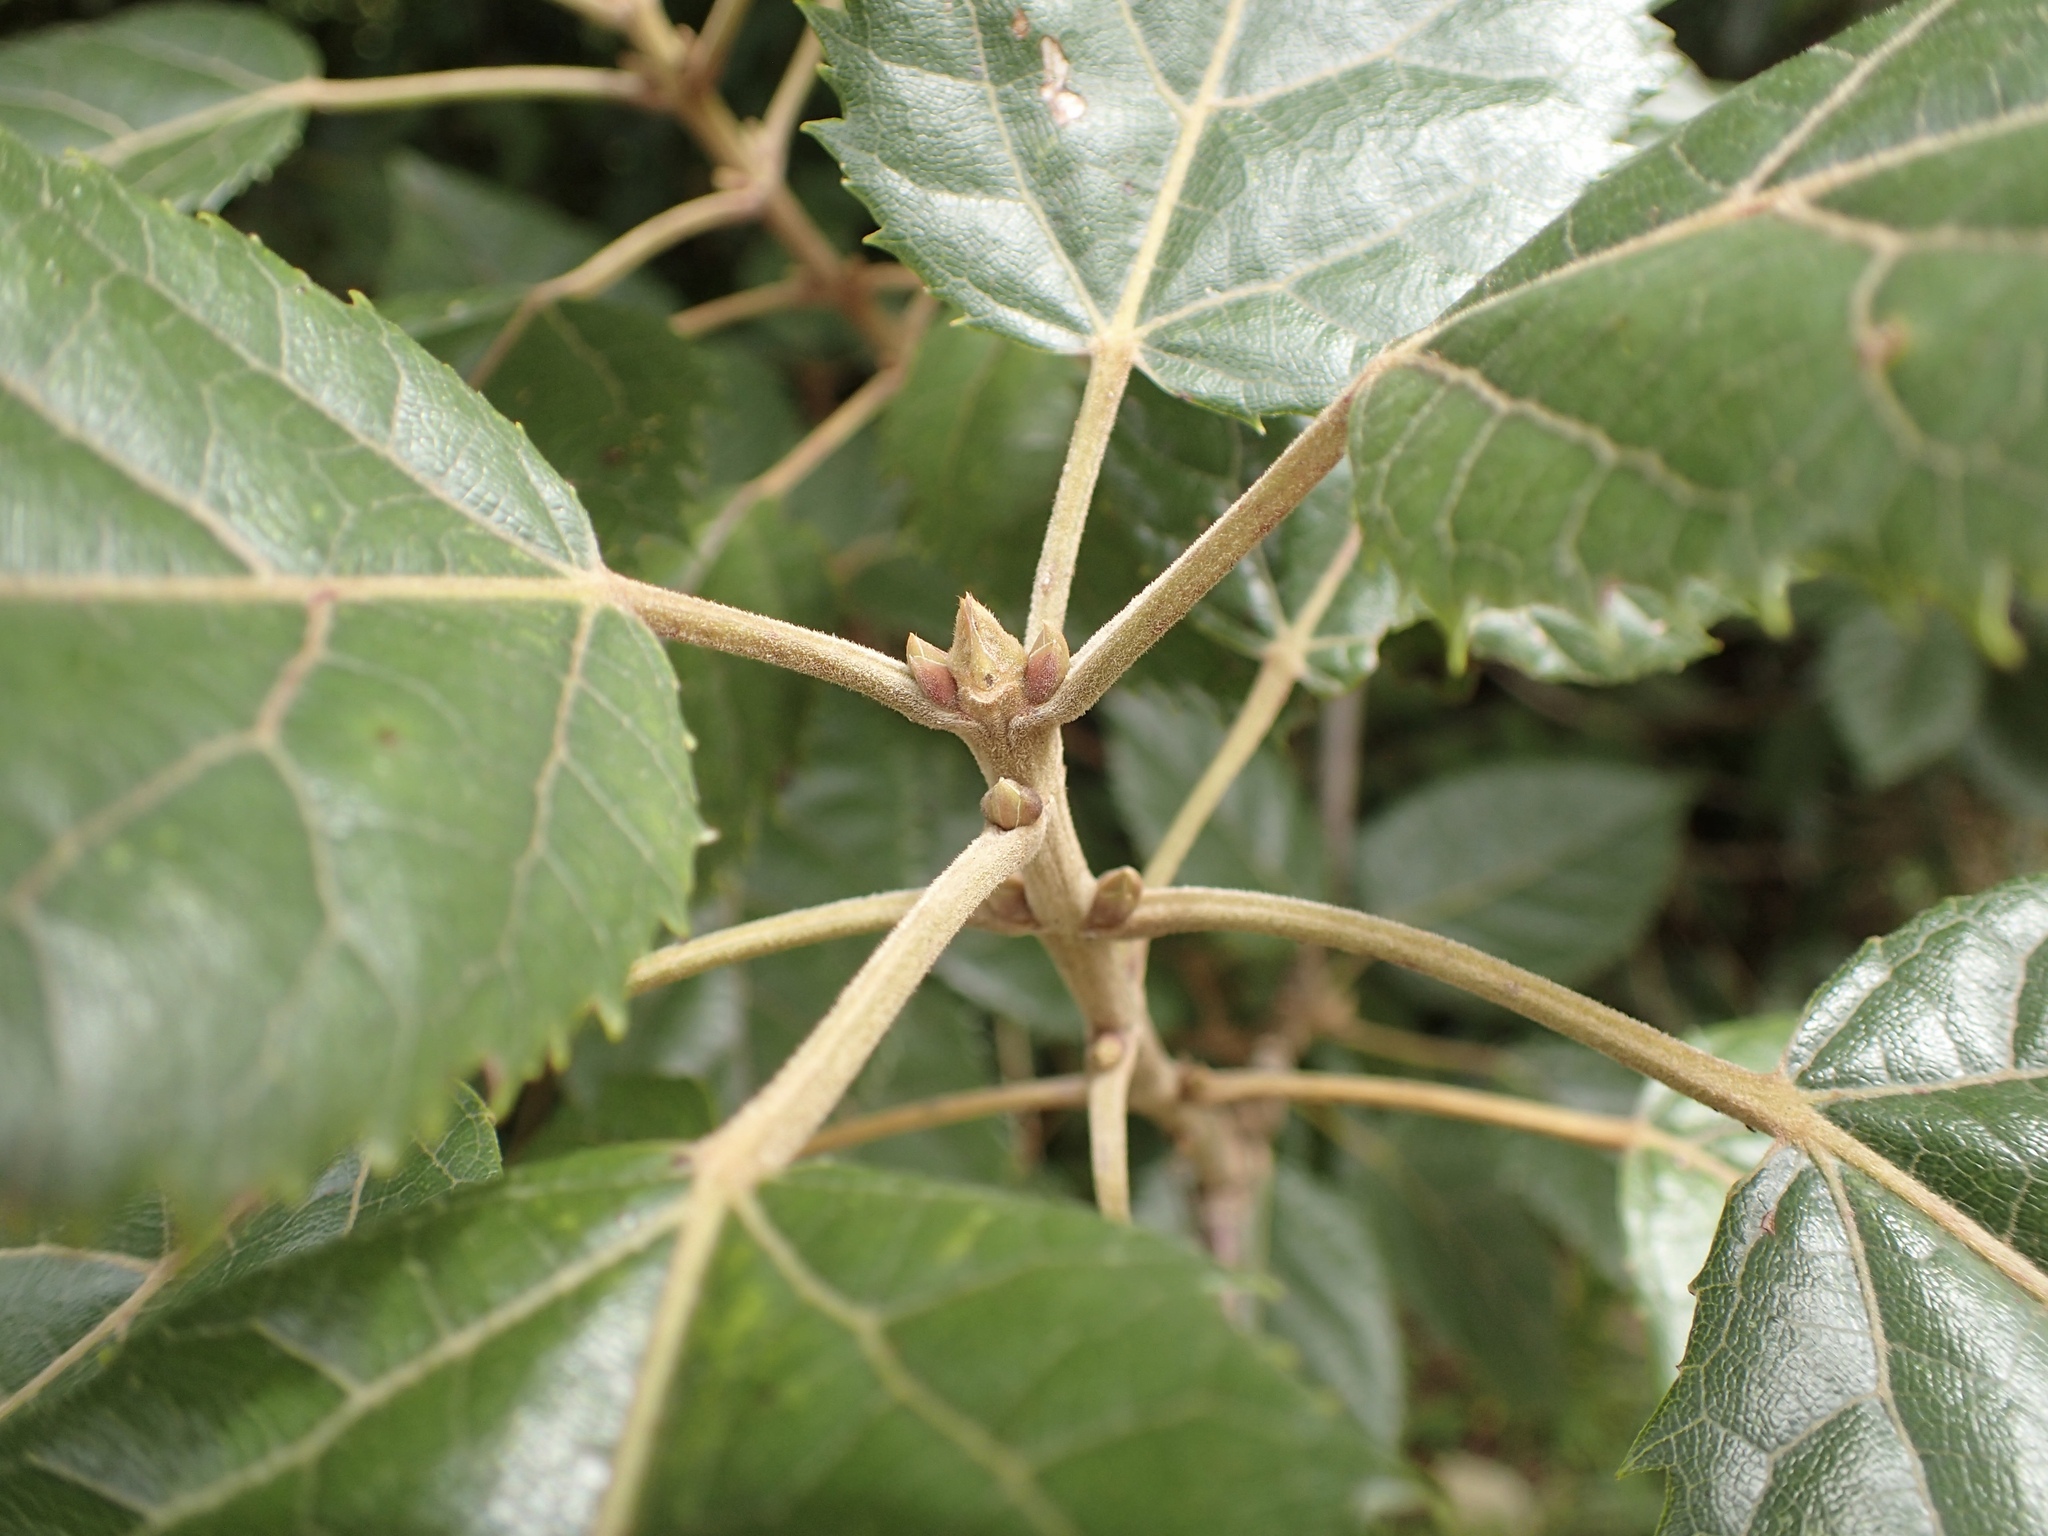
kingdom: Plantae
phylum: Tracheophyta
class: Magnoliopsida
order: Oxalidales
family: Elaeocarpaceae
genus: Aristotelia
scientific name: Aristotelia serrata
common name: New zealand wineberry
